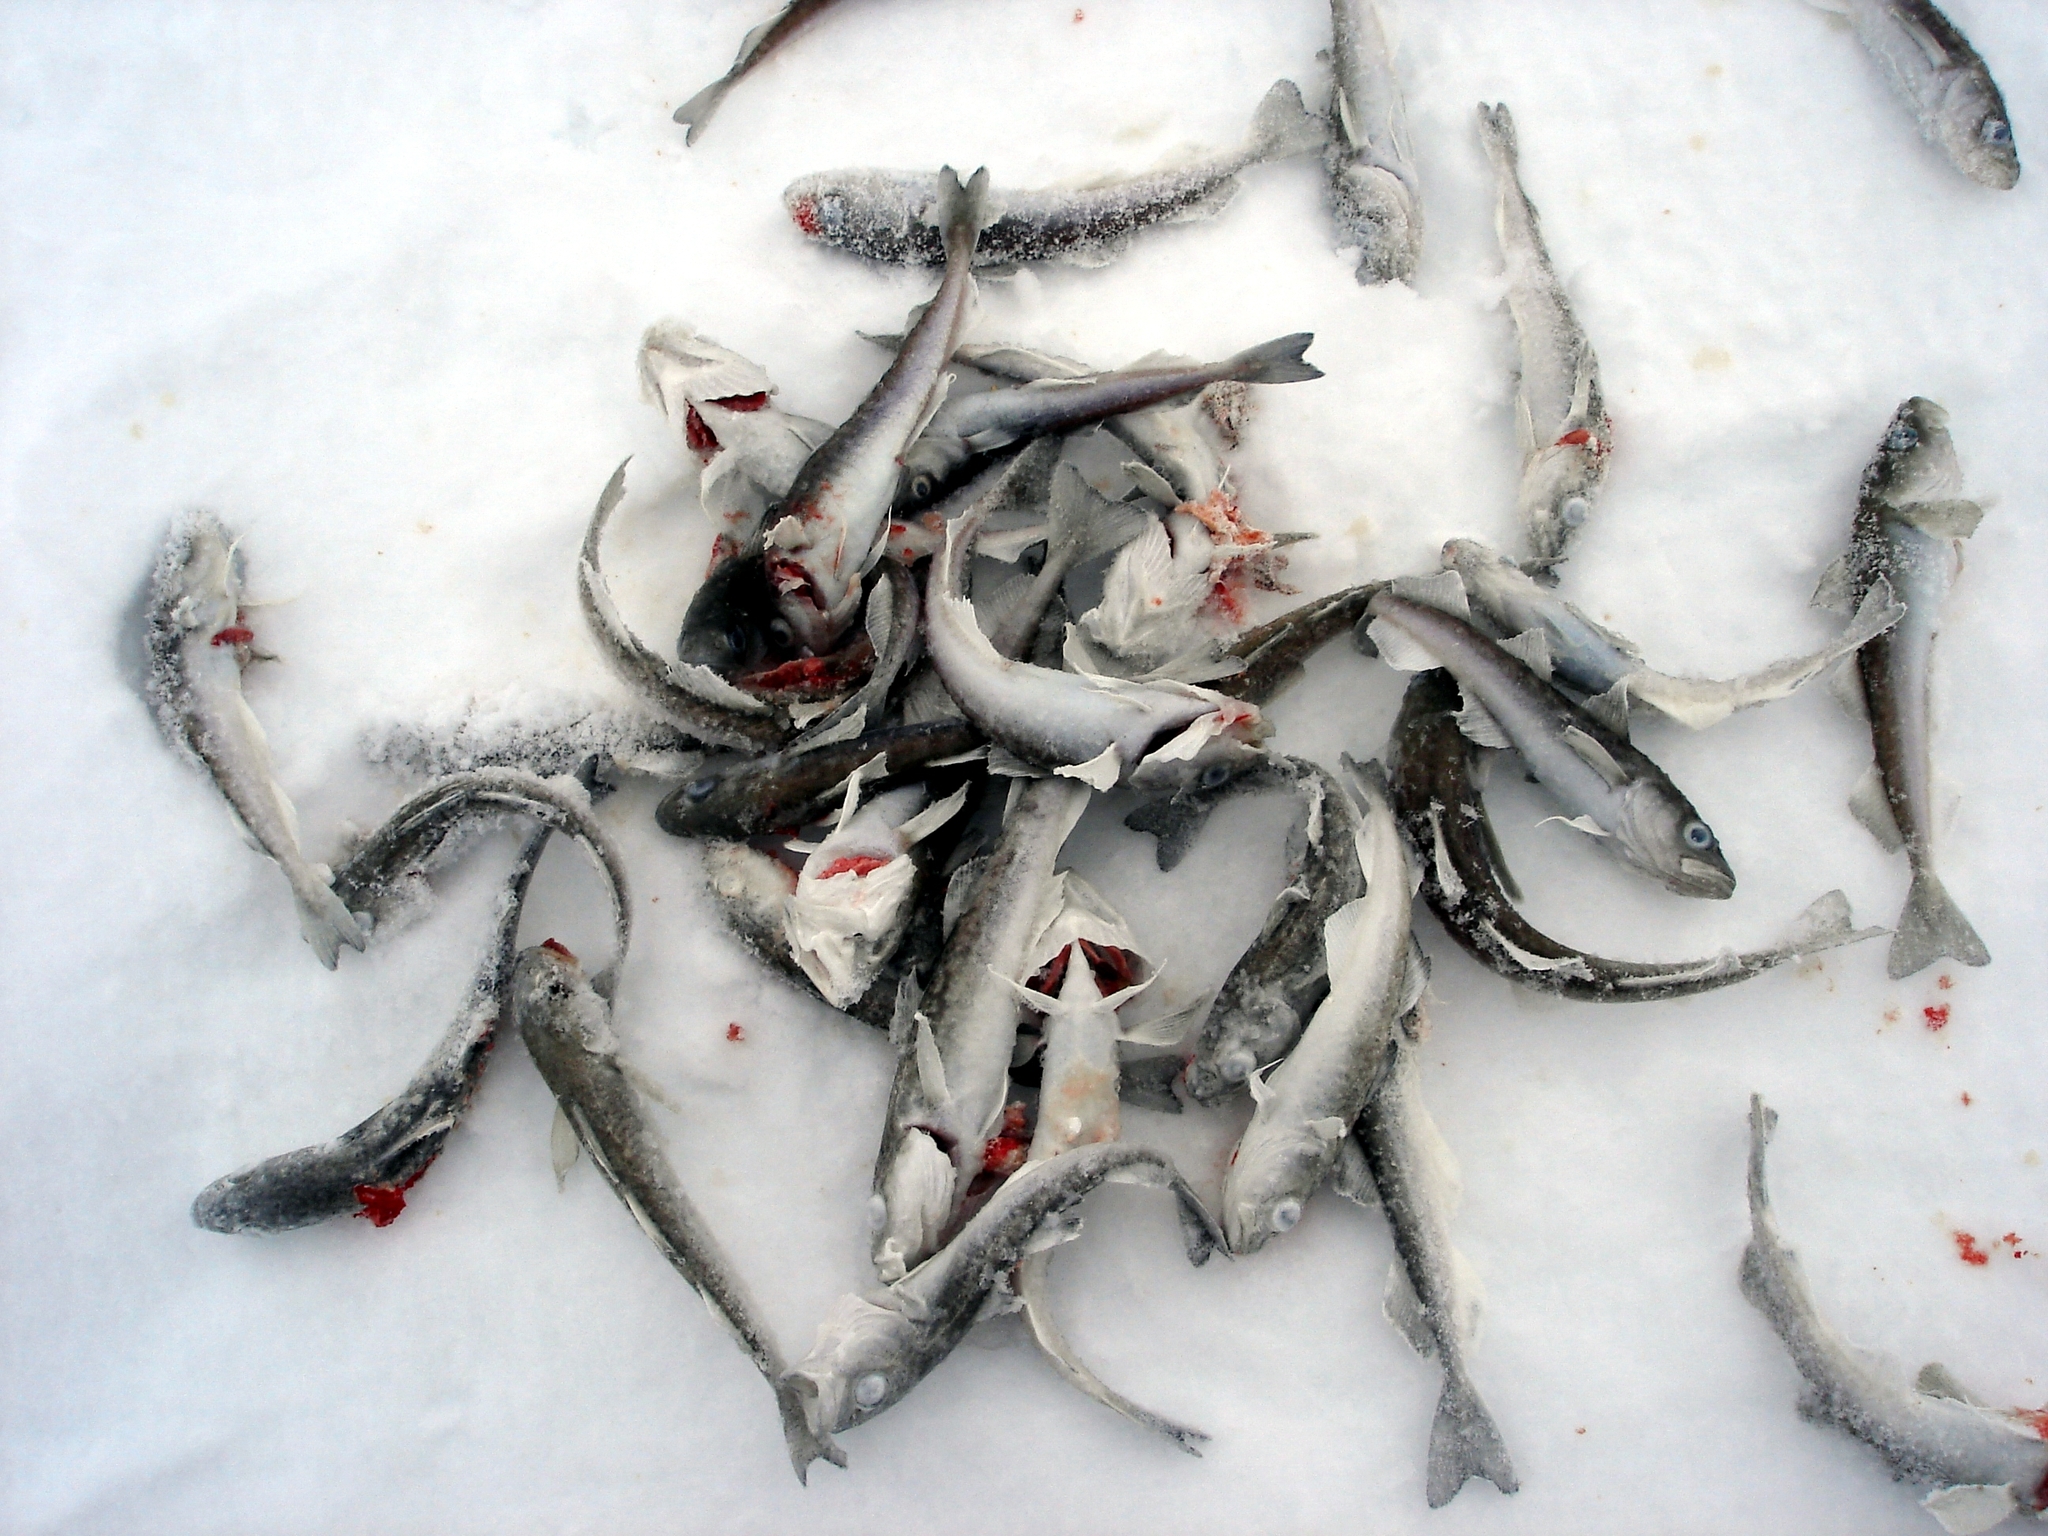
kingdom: Animalia
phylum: Chordata
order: Gadiformes
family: Gadidae
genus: Boreogadus
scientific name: Boreogadus saida
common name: Arctic cod
